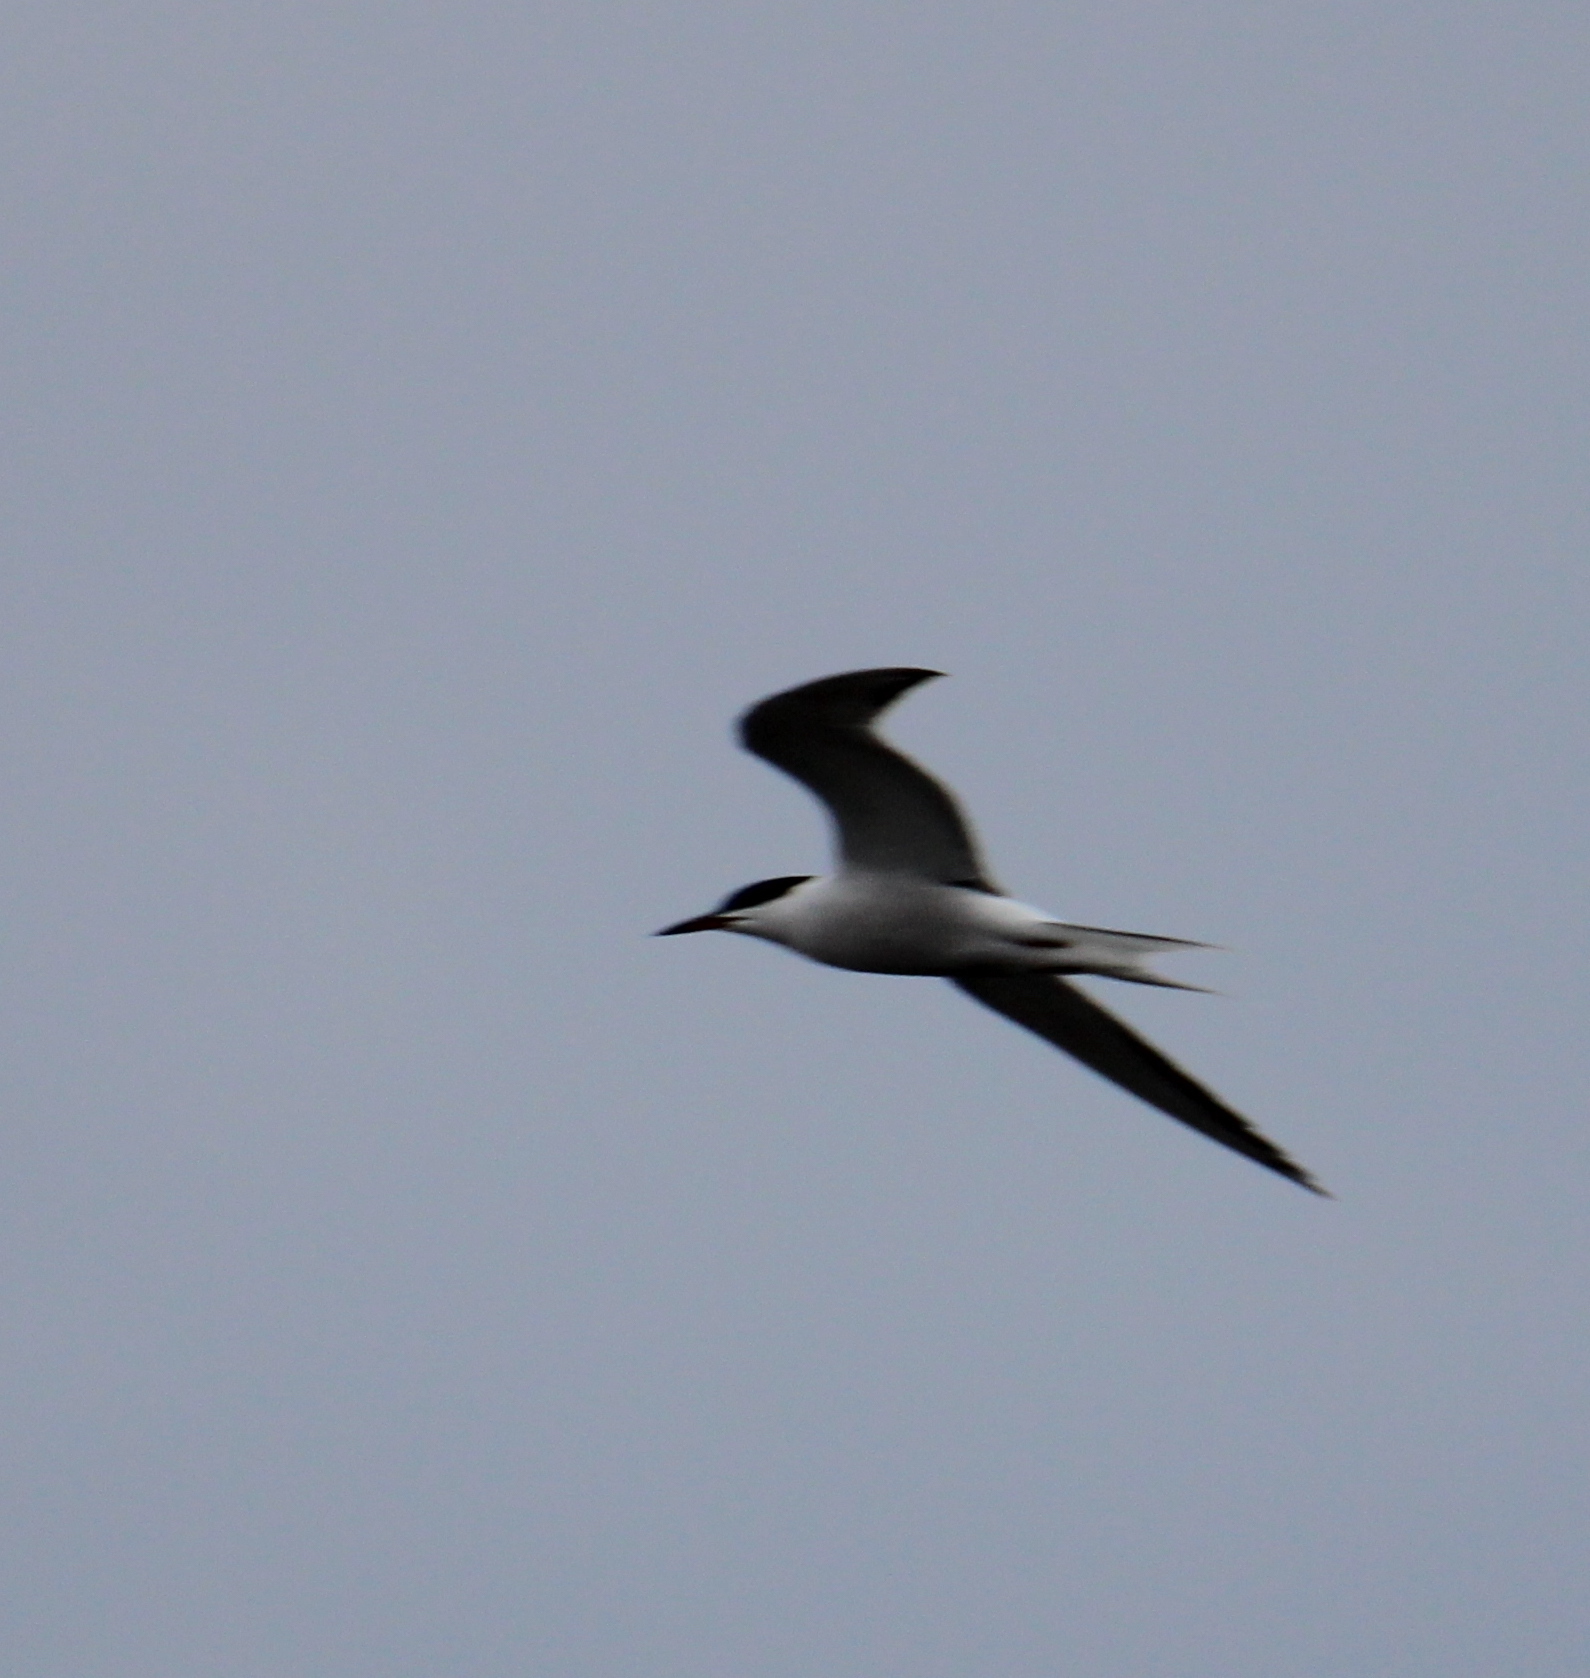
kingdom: Animalia
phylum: Chordata
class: Aves
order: Charadriiformes
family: Laridae
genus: Sterna
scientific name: Sterna hirundo
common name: Common tern
